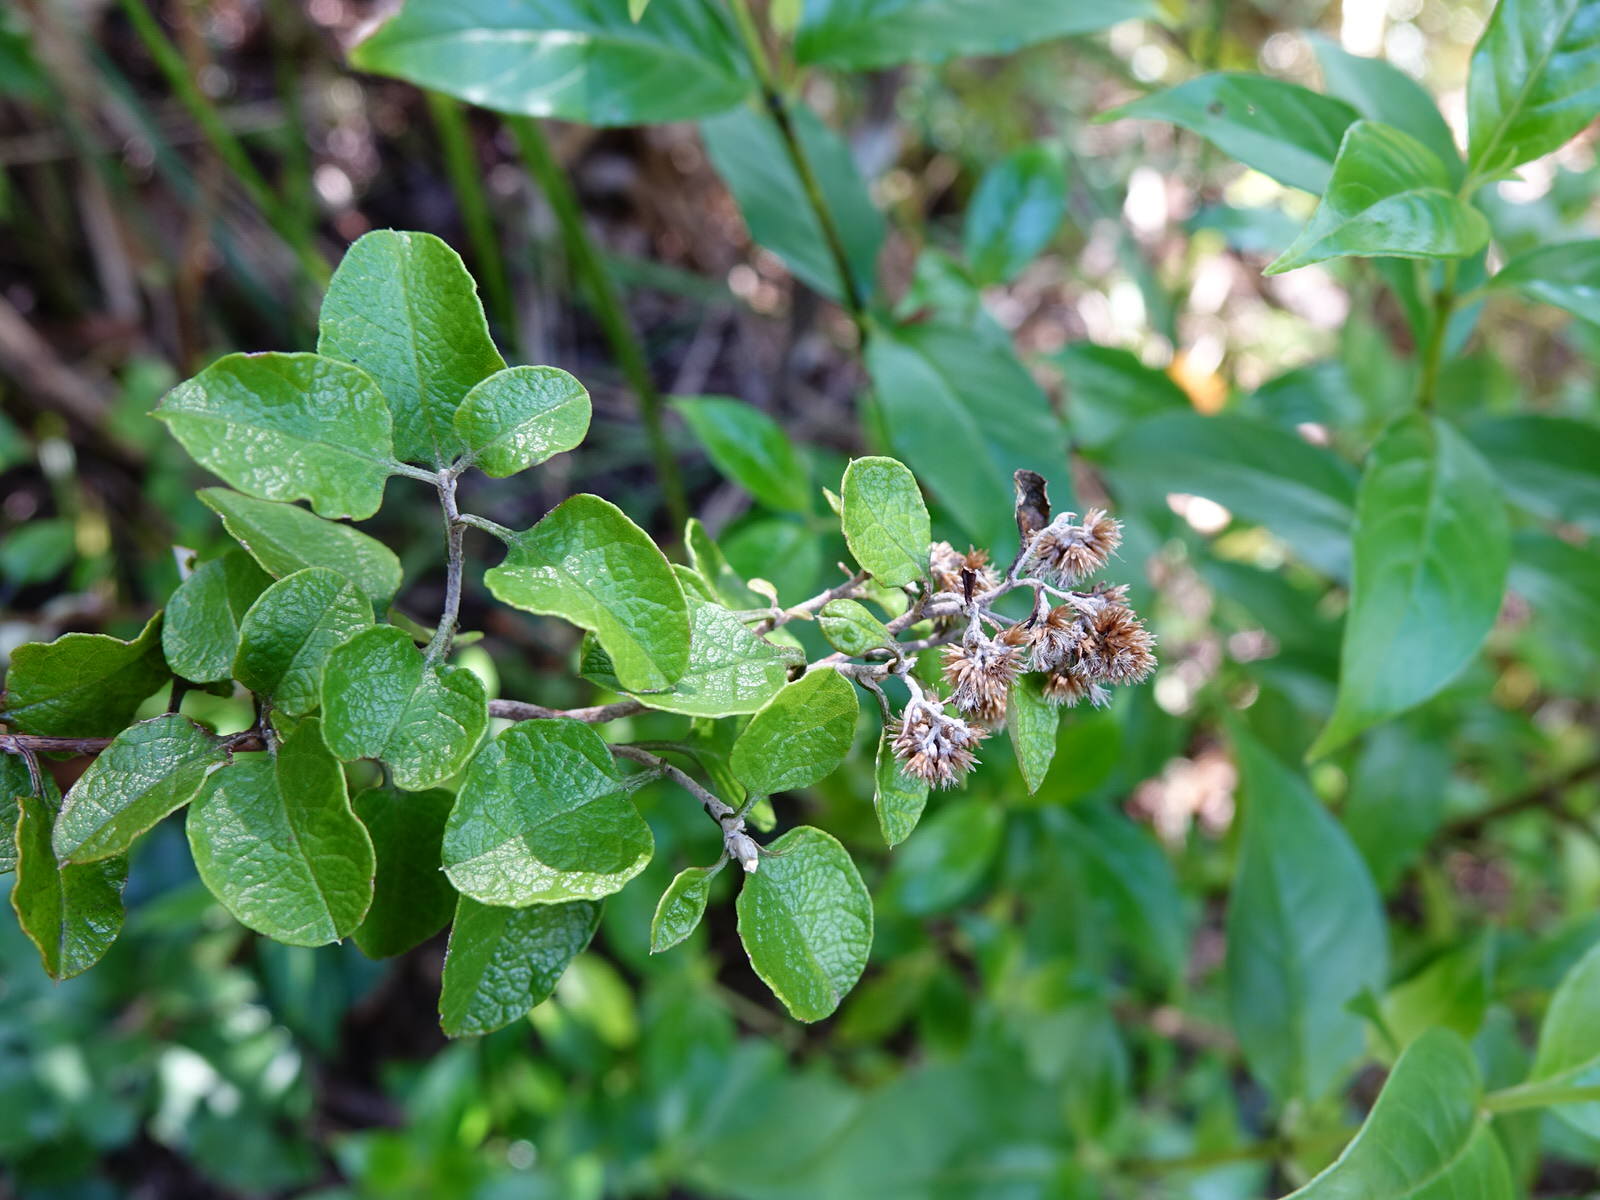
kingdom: Plantae
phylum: Tracheophyta
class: Magnoliopsida
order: Asterales
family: Asteraceae
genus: Ozothamnus
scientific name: Ozothamnus glomeratus
